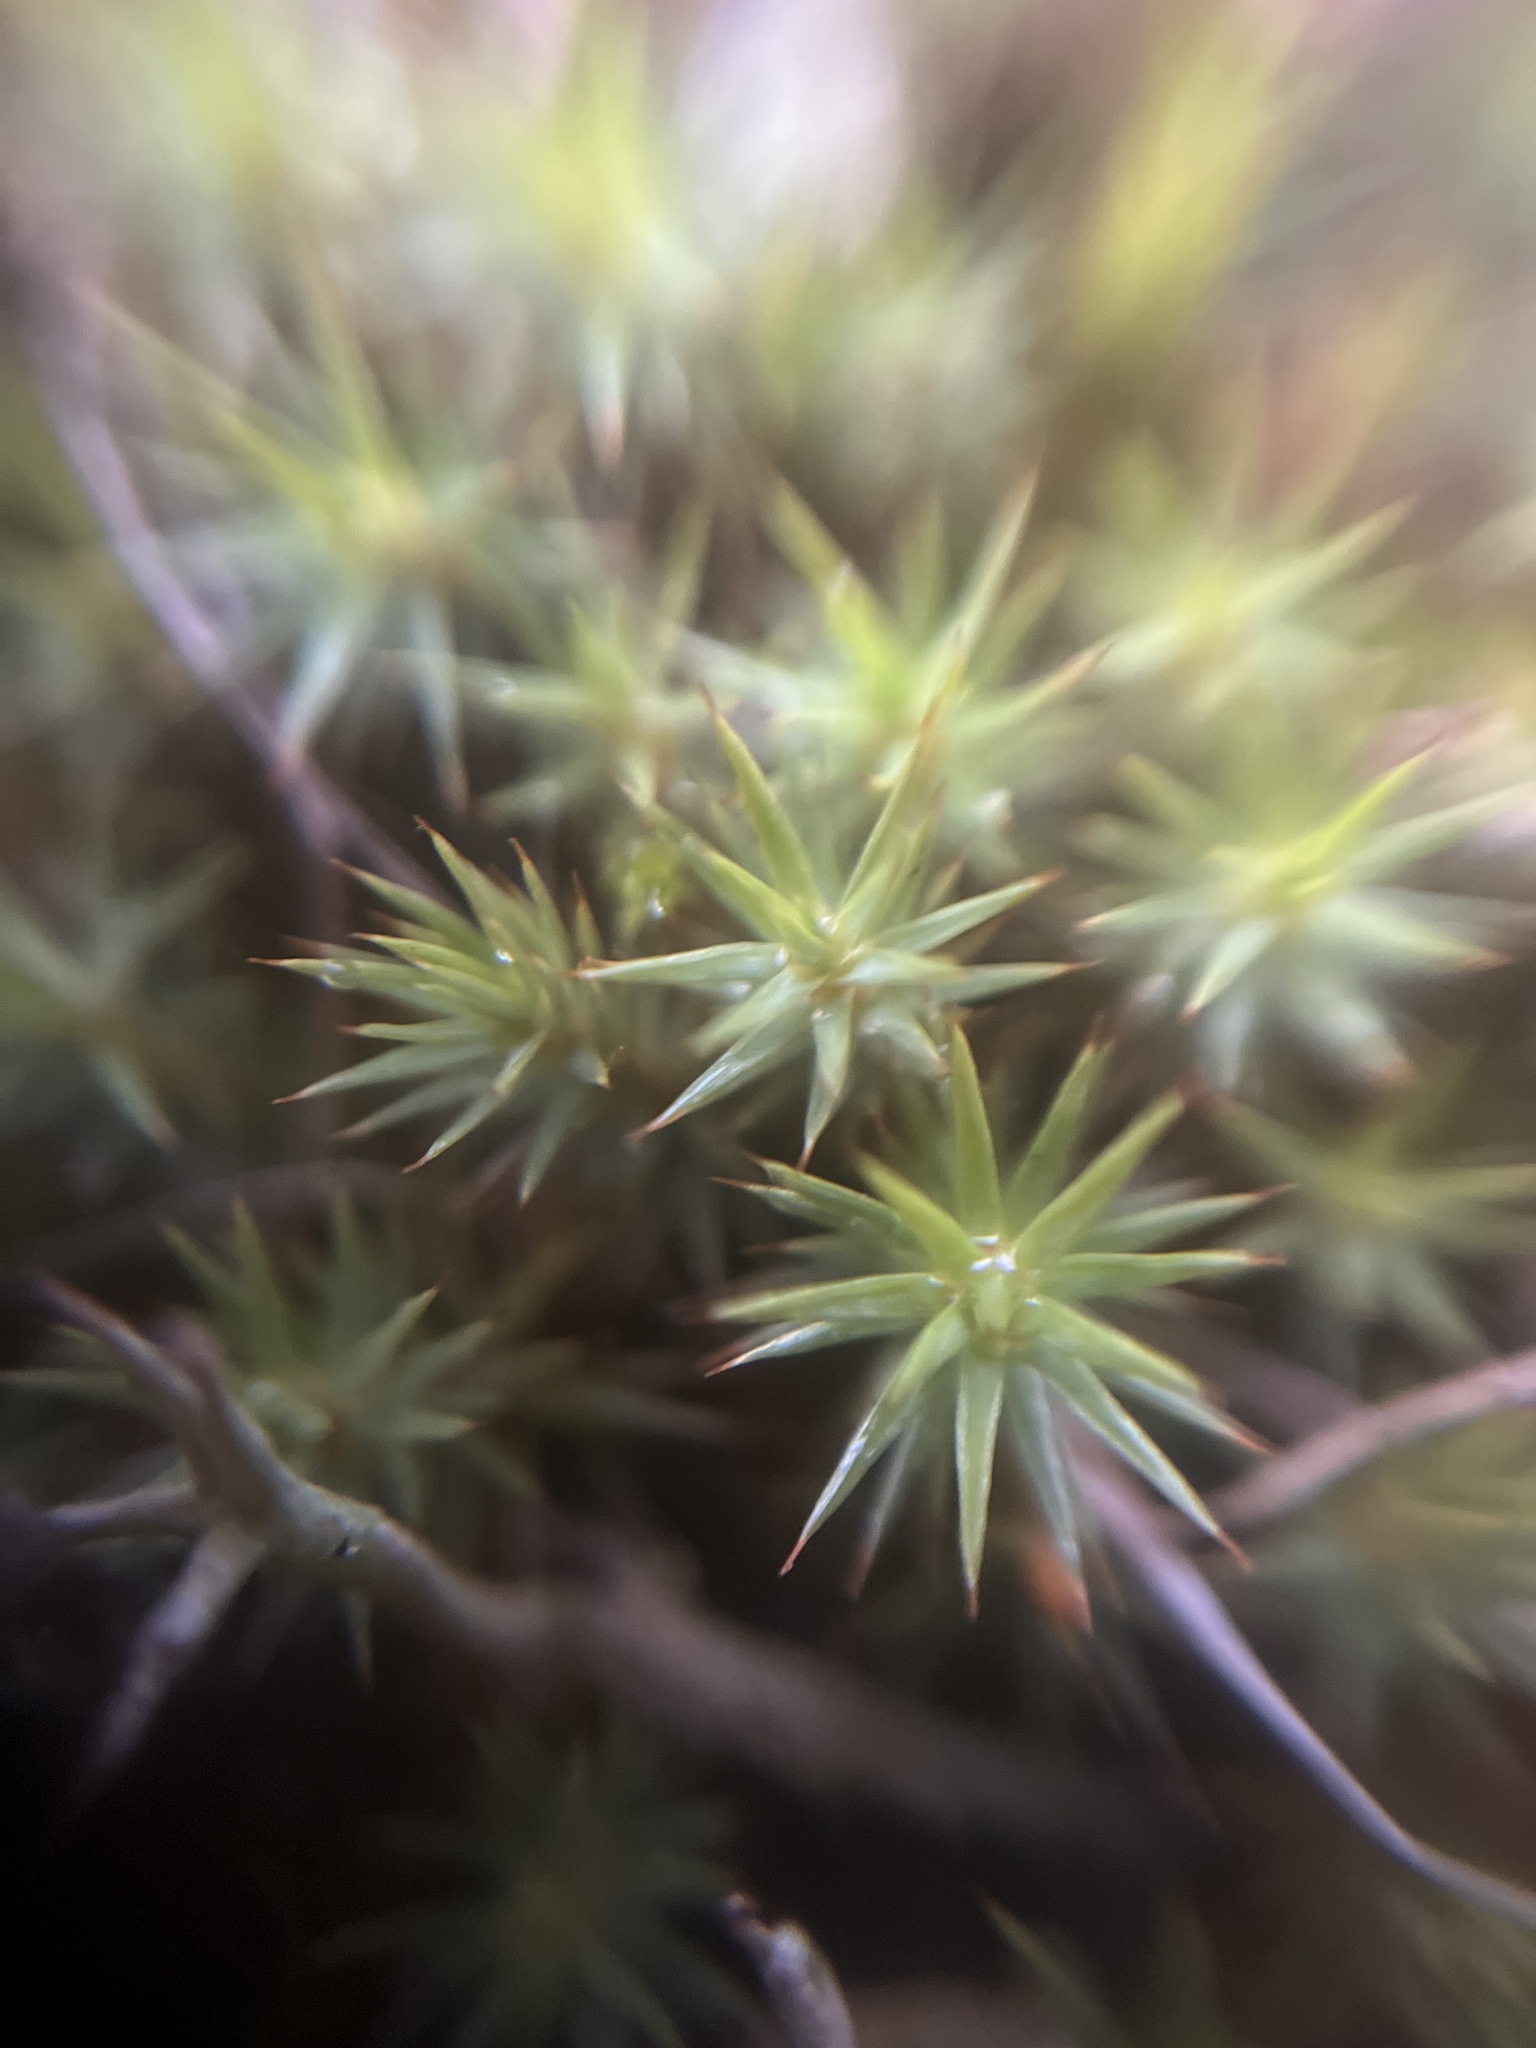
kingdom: Plantae
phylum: Bryophyta
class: Polytrichopsida
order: Polytrichales
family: Polytrichaceae
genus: Polytrichum
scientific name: Polytrichum juniperinum
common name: Juniper haircap moss
